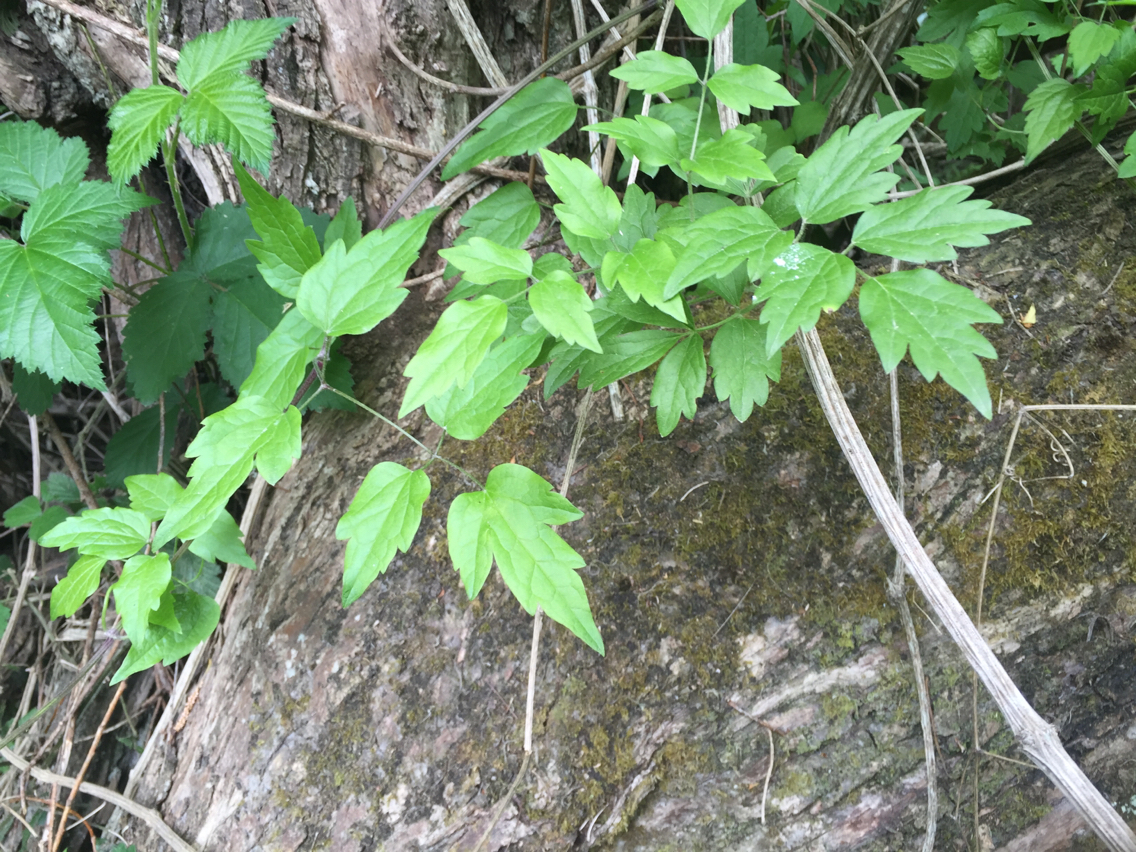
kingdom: Plantae
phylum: Tracheophyta
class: Magnoliopsida
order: Ranunculales
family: Ranunculaceae
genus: Clematis
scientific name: Clematis vitalba
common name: Evergreen clematis
